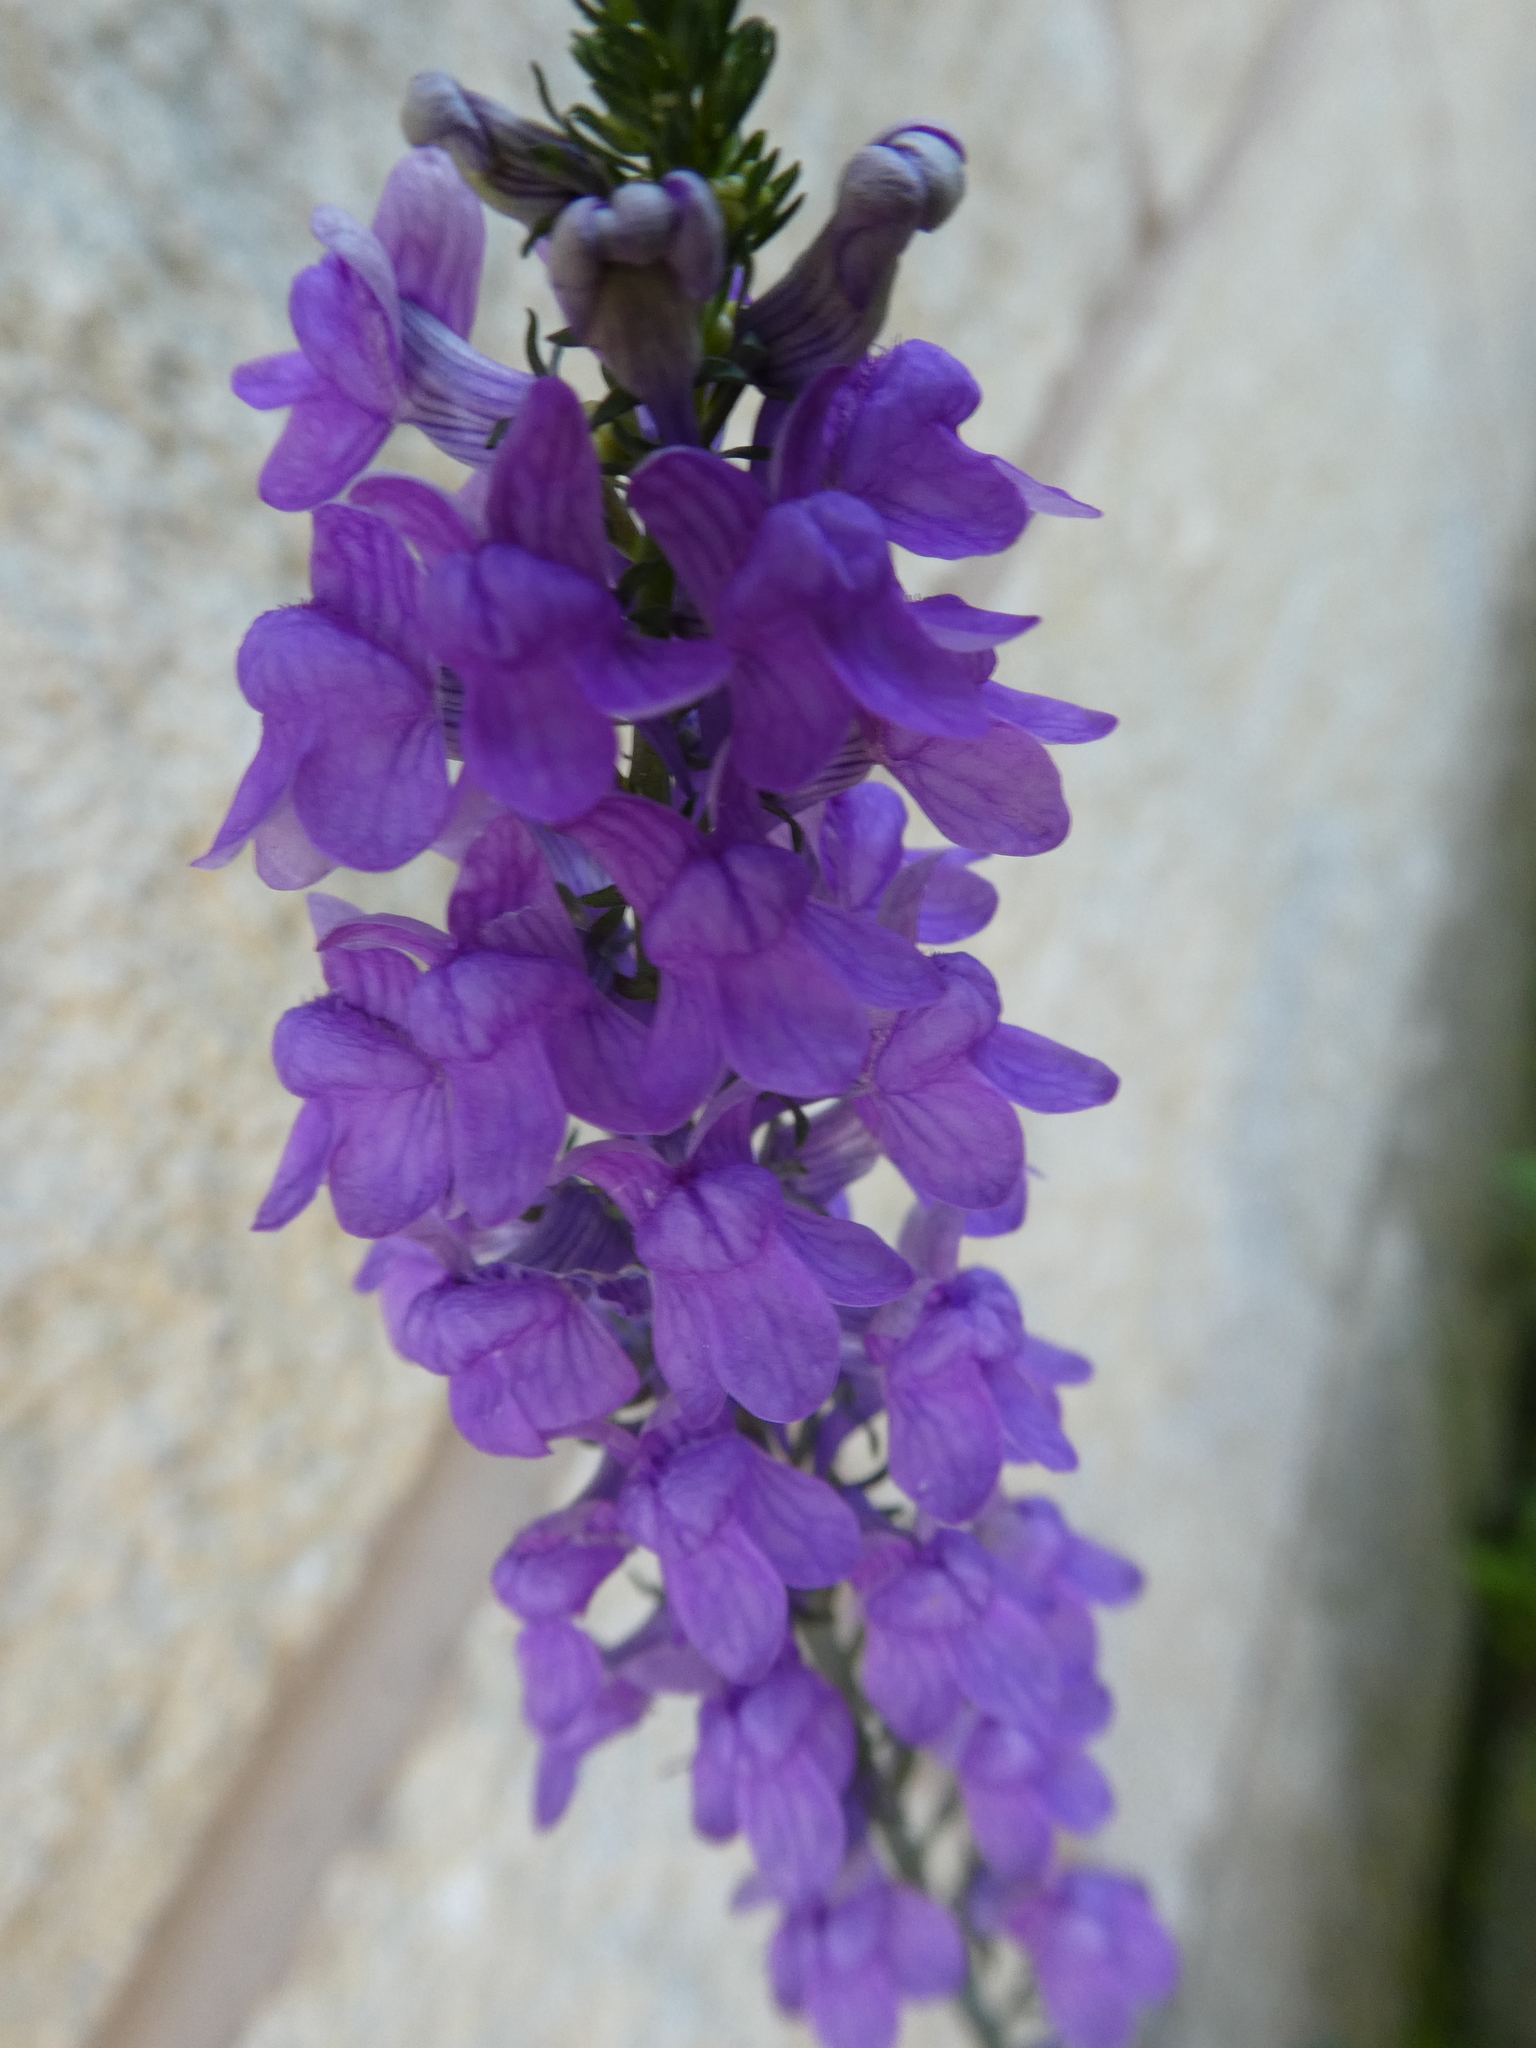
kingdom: Plantae
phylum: Tracheophyta
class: Magnoliopsida
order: Lamiales
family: Plantaginaceae
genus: Linaria
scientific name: Linaria purpurea
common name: Purple toadflax
